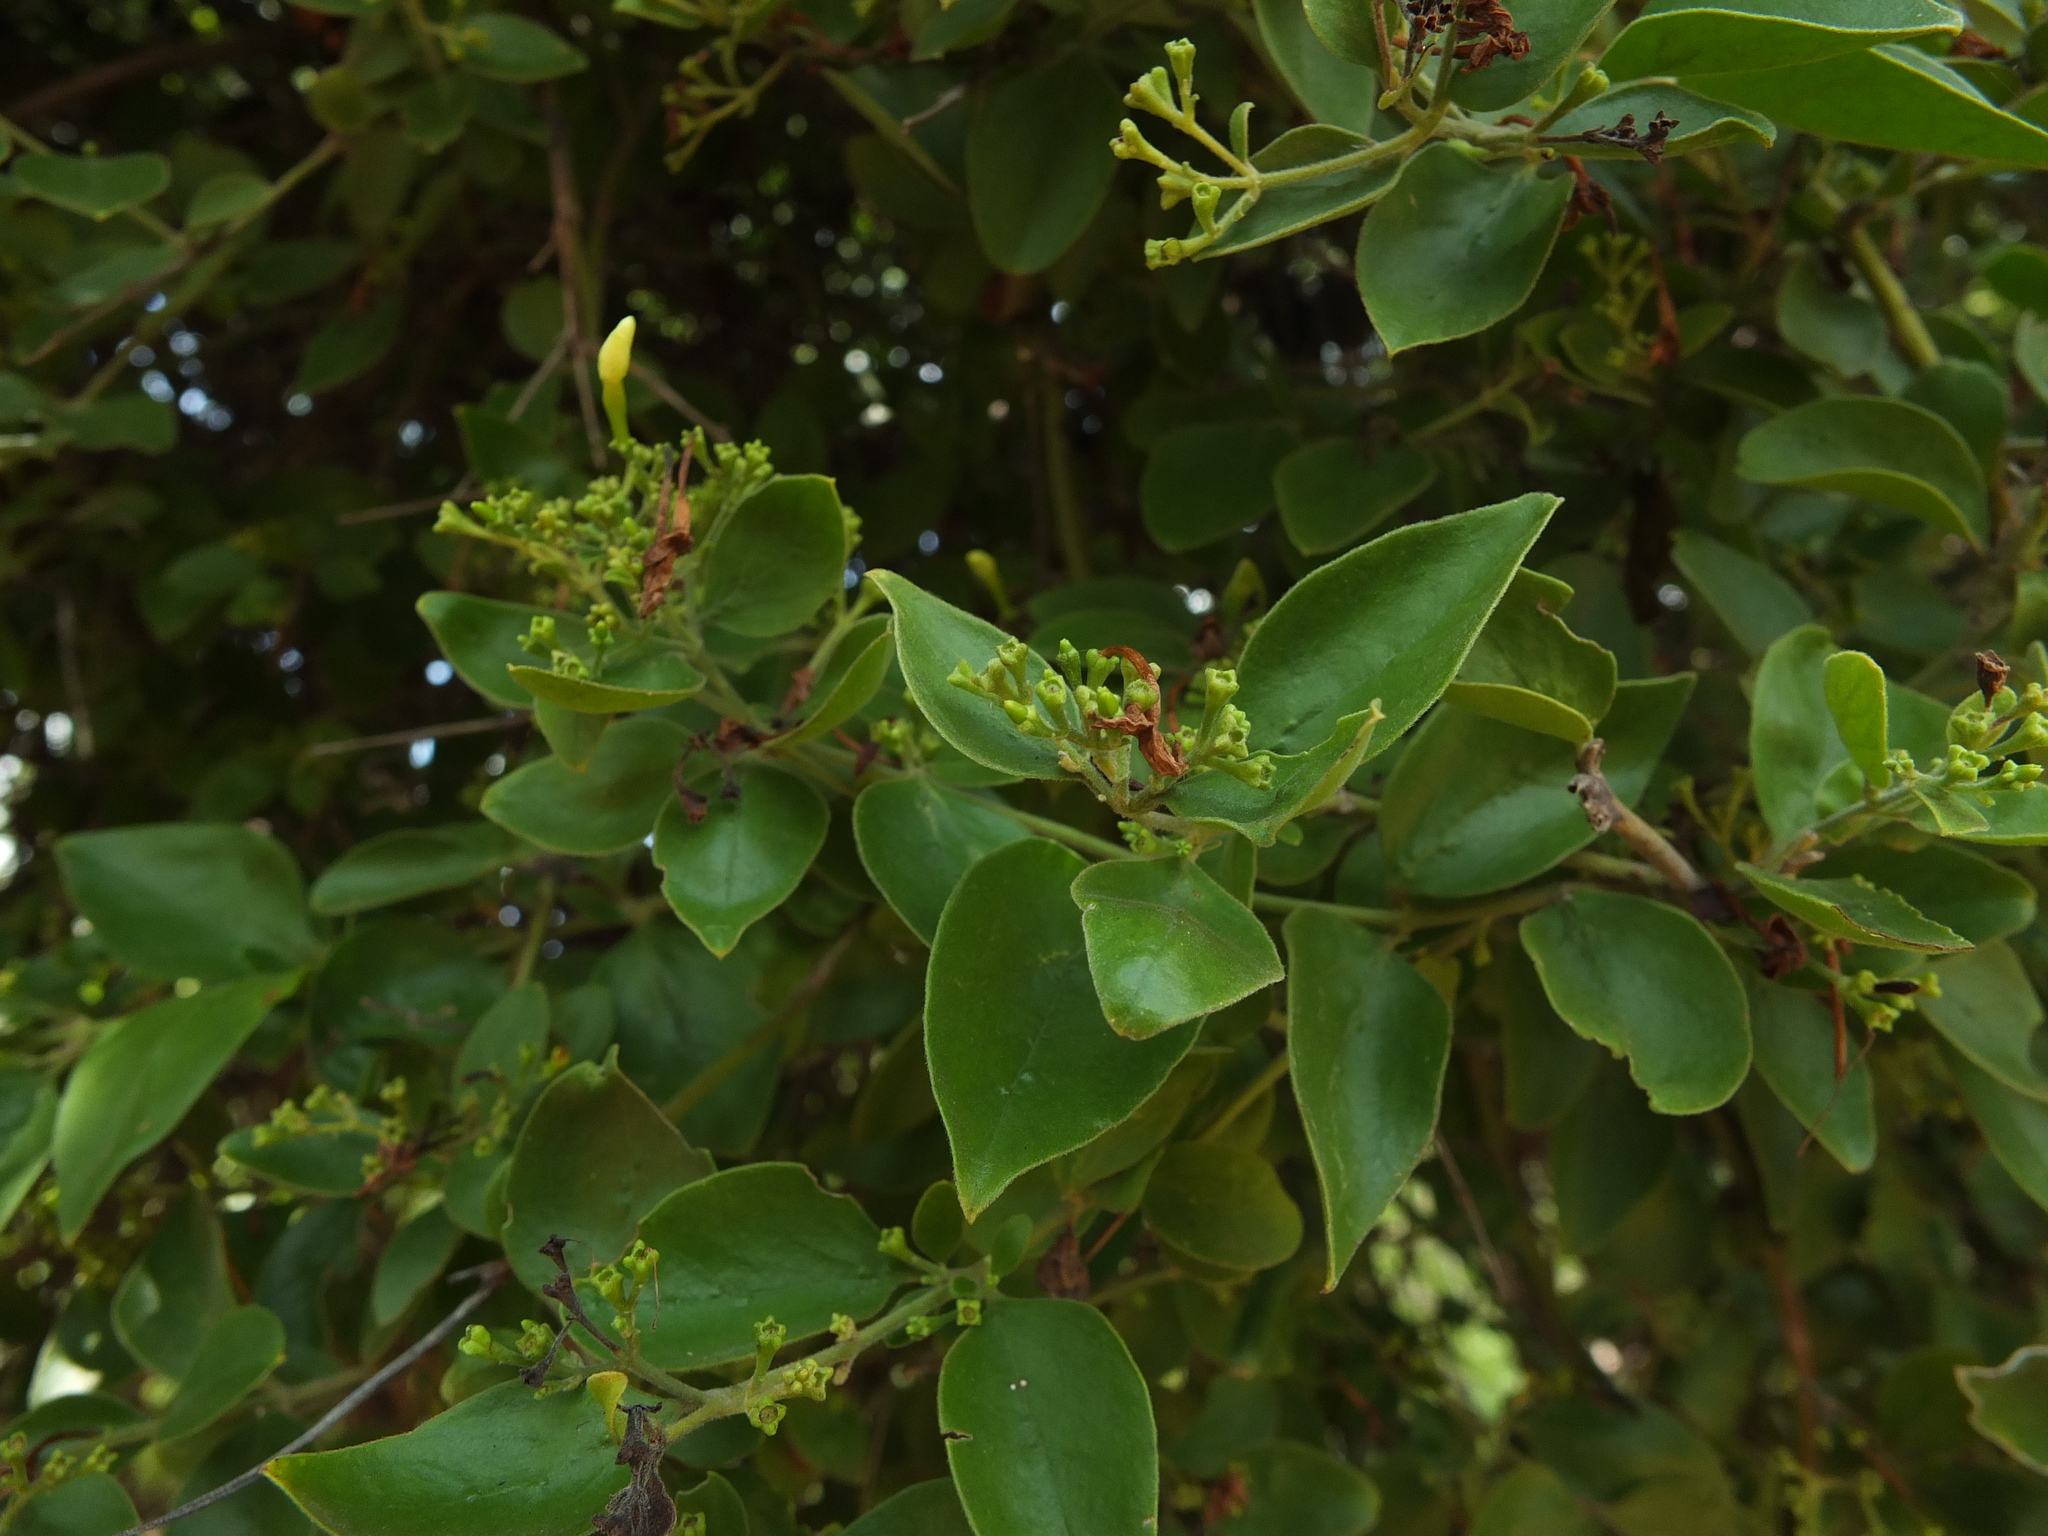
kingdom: Plantae
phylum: Tracheophyta
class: Magnoliopsida
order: Lamiales
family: Oleaceae
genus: Jasminum
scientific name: Jasminum auriculatum
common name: Needle-flower jasmine
